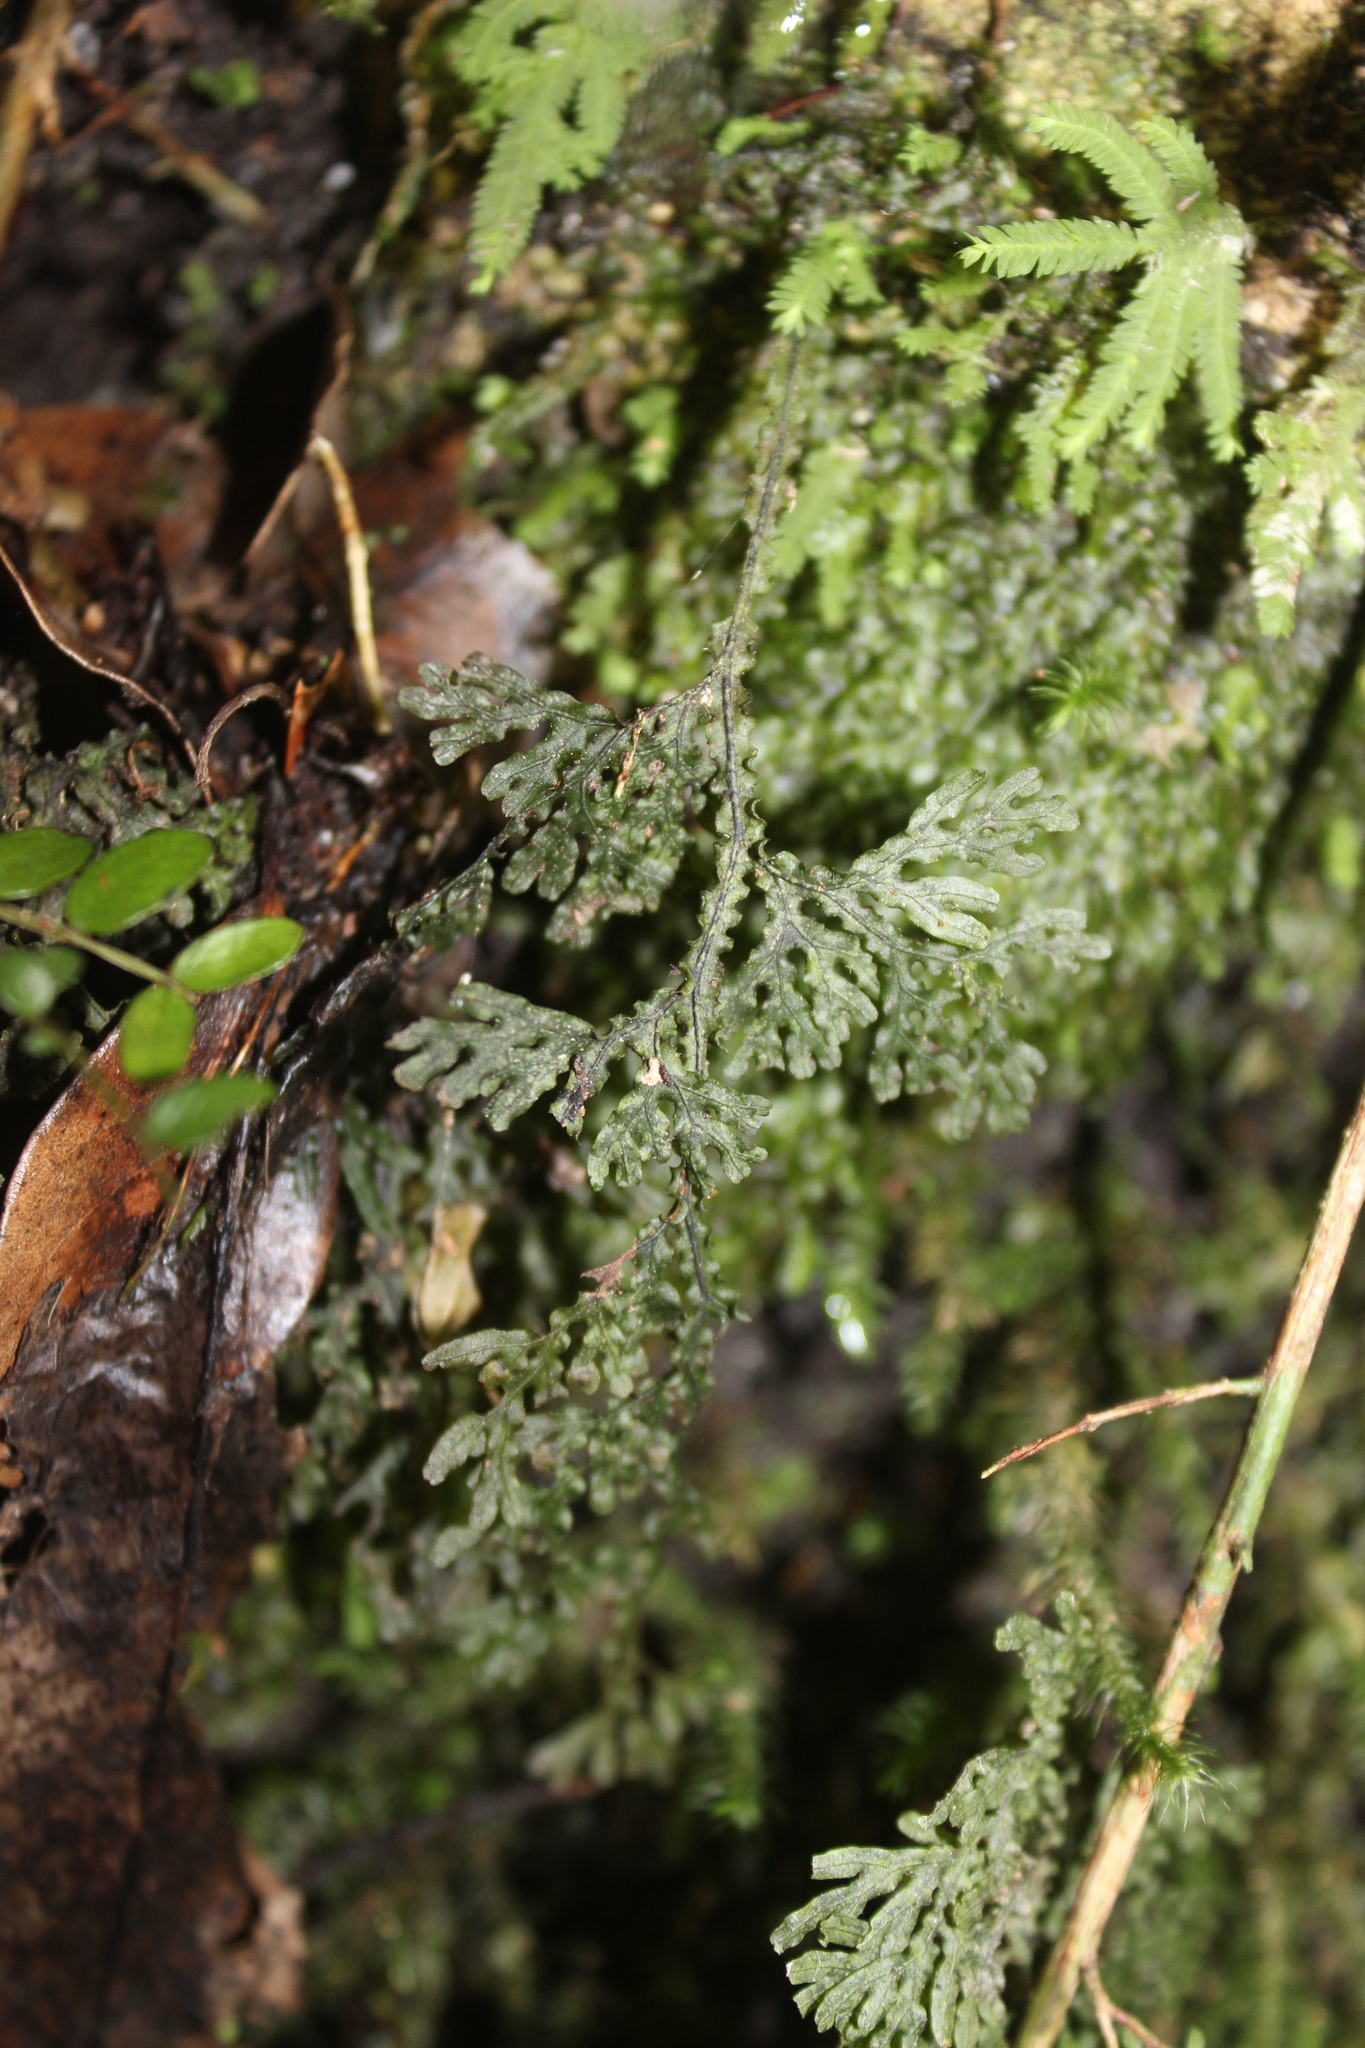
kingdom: Plantae
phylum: Tracheophyta
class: Polypodiopsida
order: Hymenophyllales
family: Hymenophyllaceae
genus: Hymenophyllum
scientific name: Hymenophyllum flexuosum
